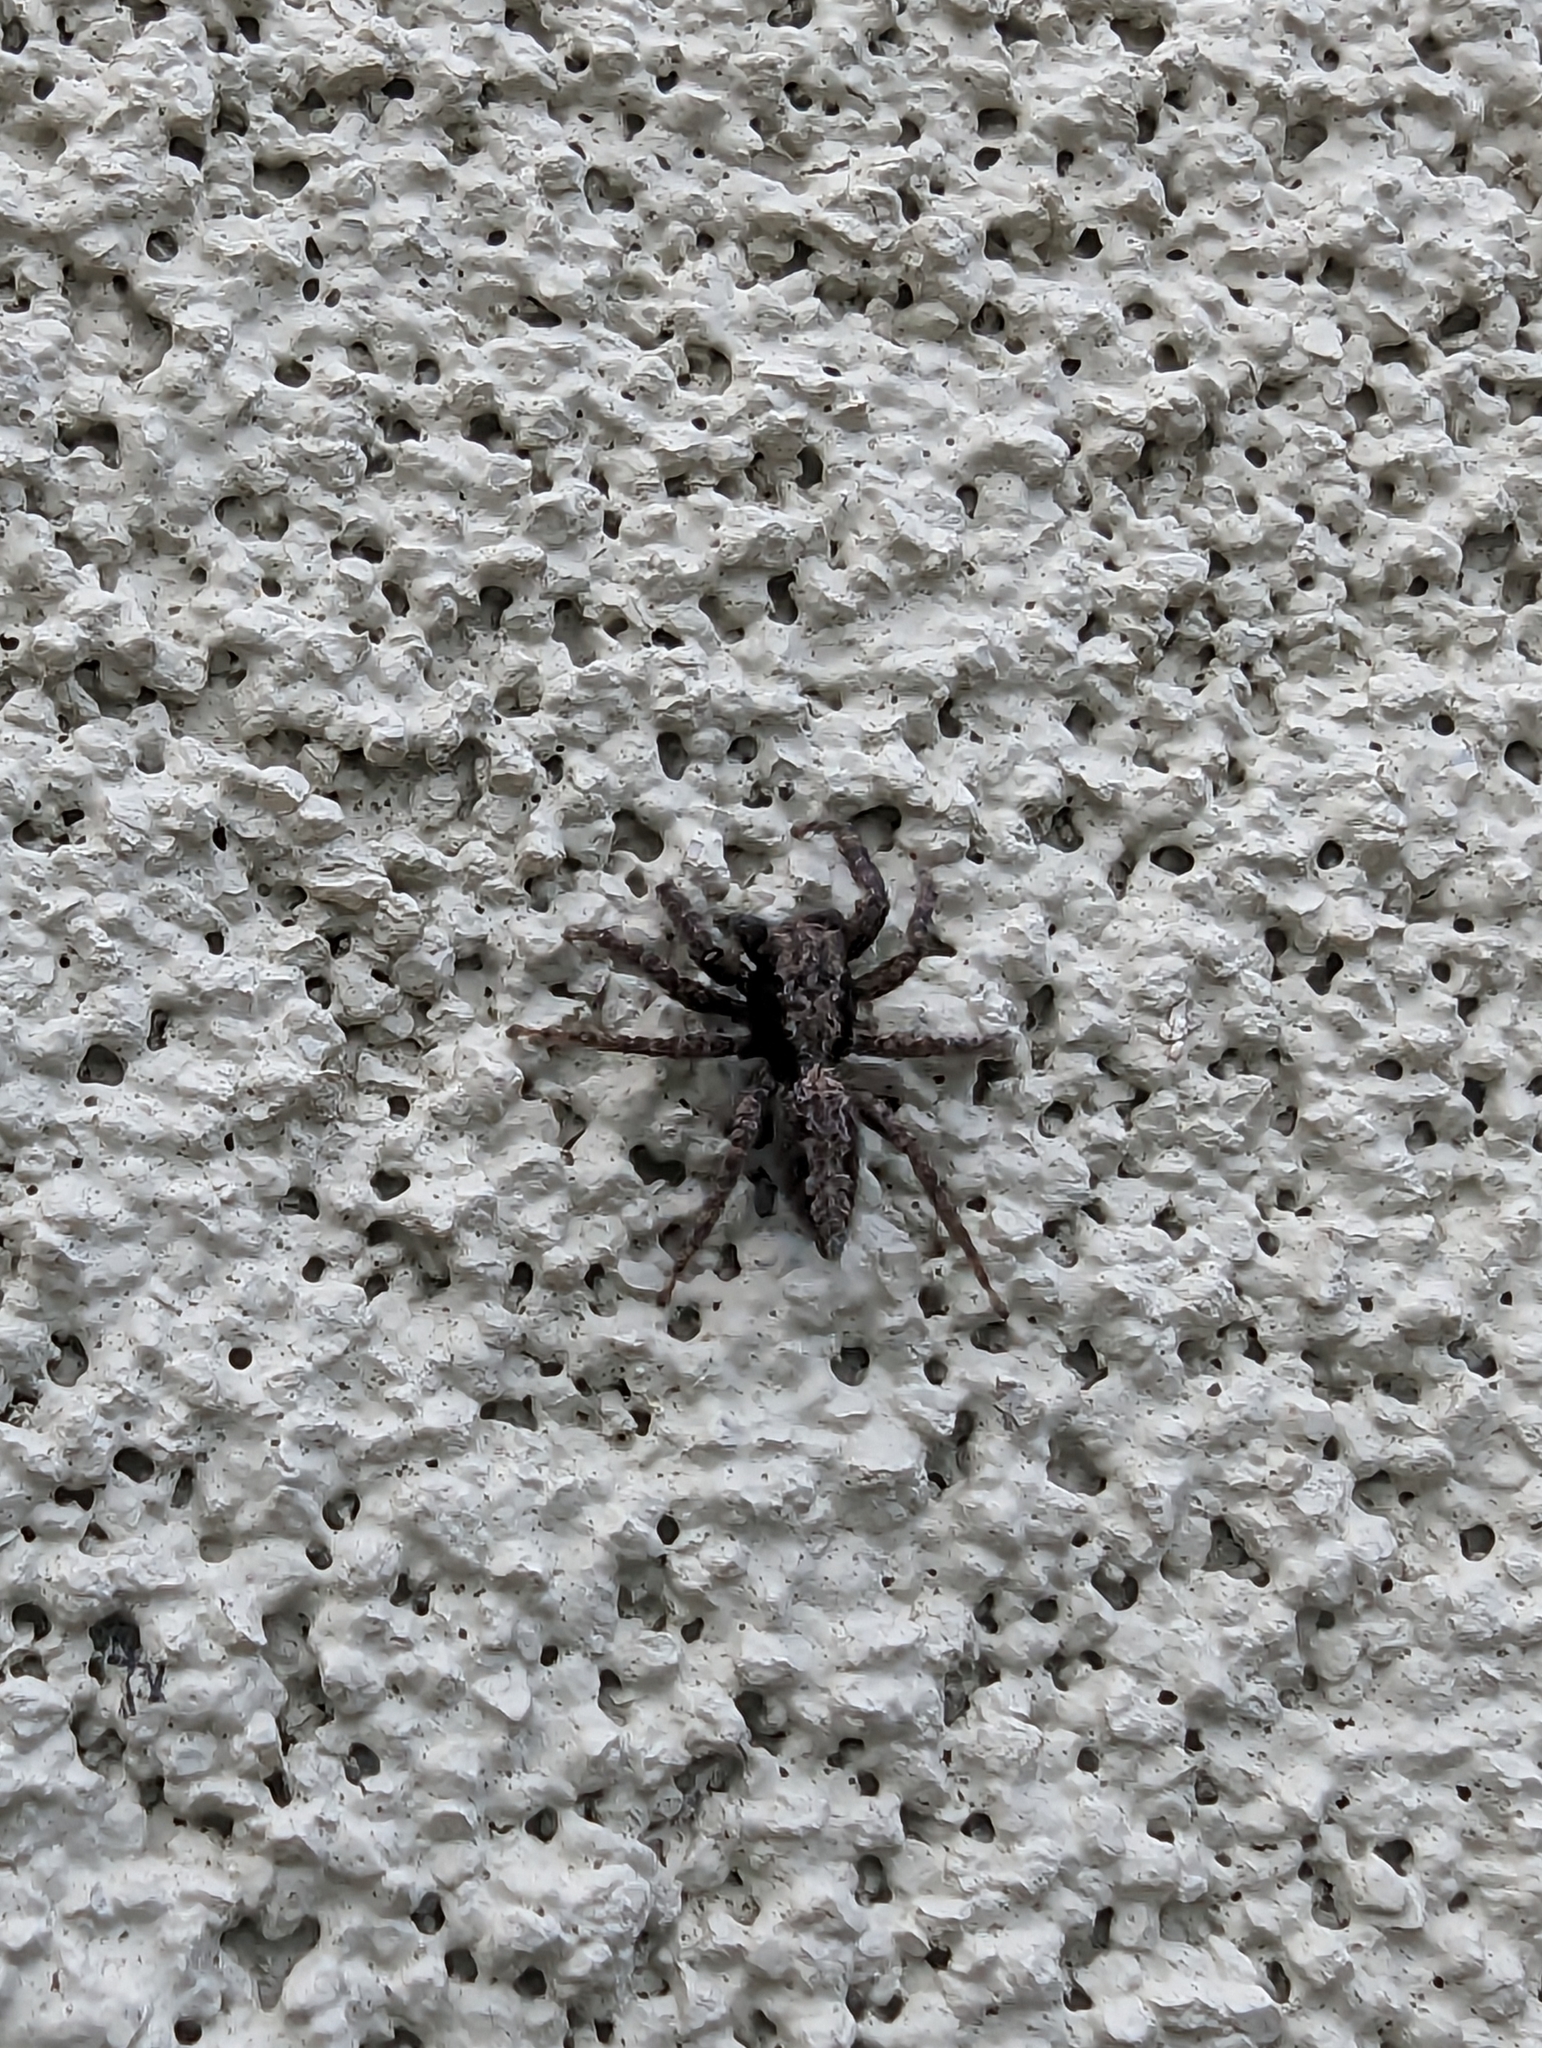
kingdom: Animalia
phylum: Arthropoda
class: Arachnida
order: Araneae
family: Salticidae
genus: Platycryptus
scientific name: Platycryptus californicus
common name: Jumping spiders
